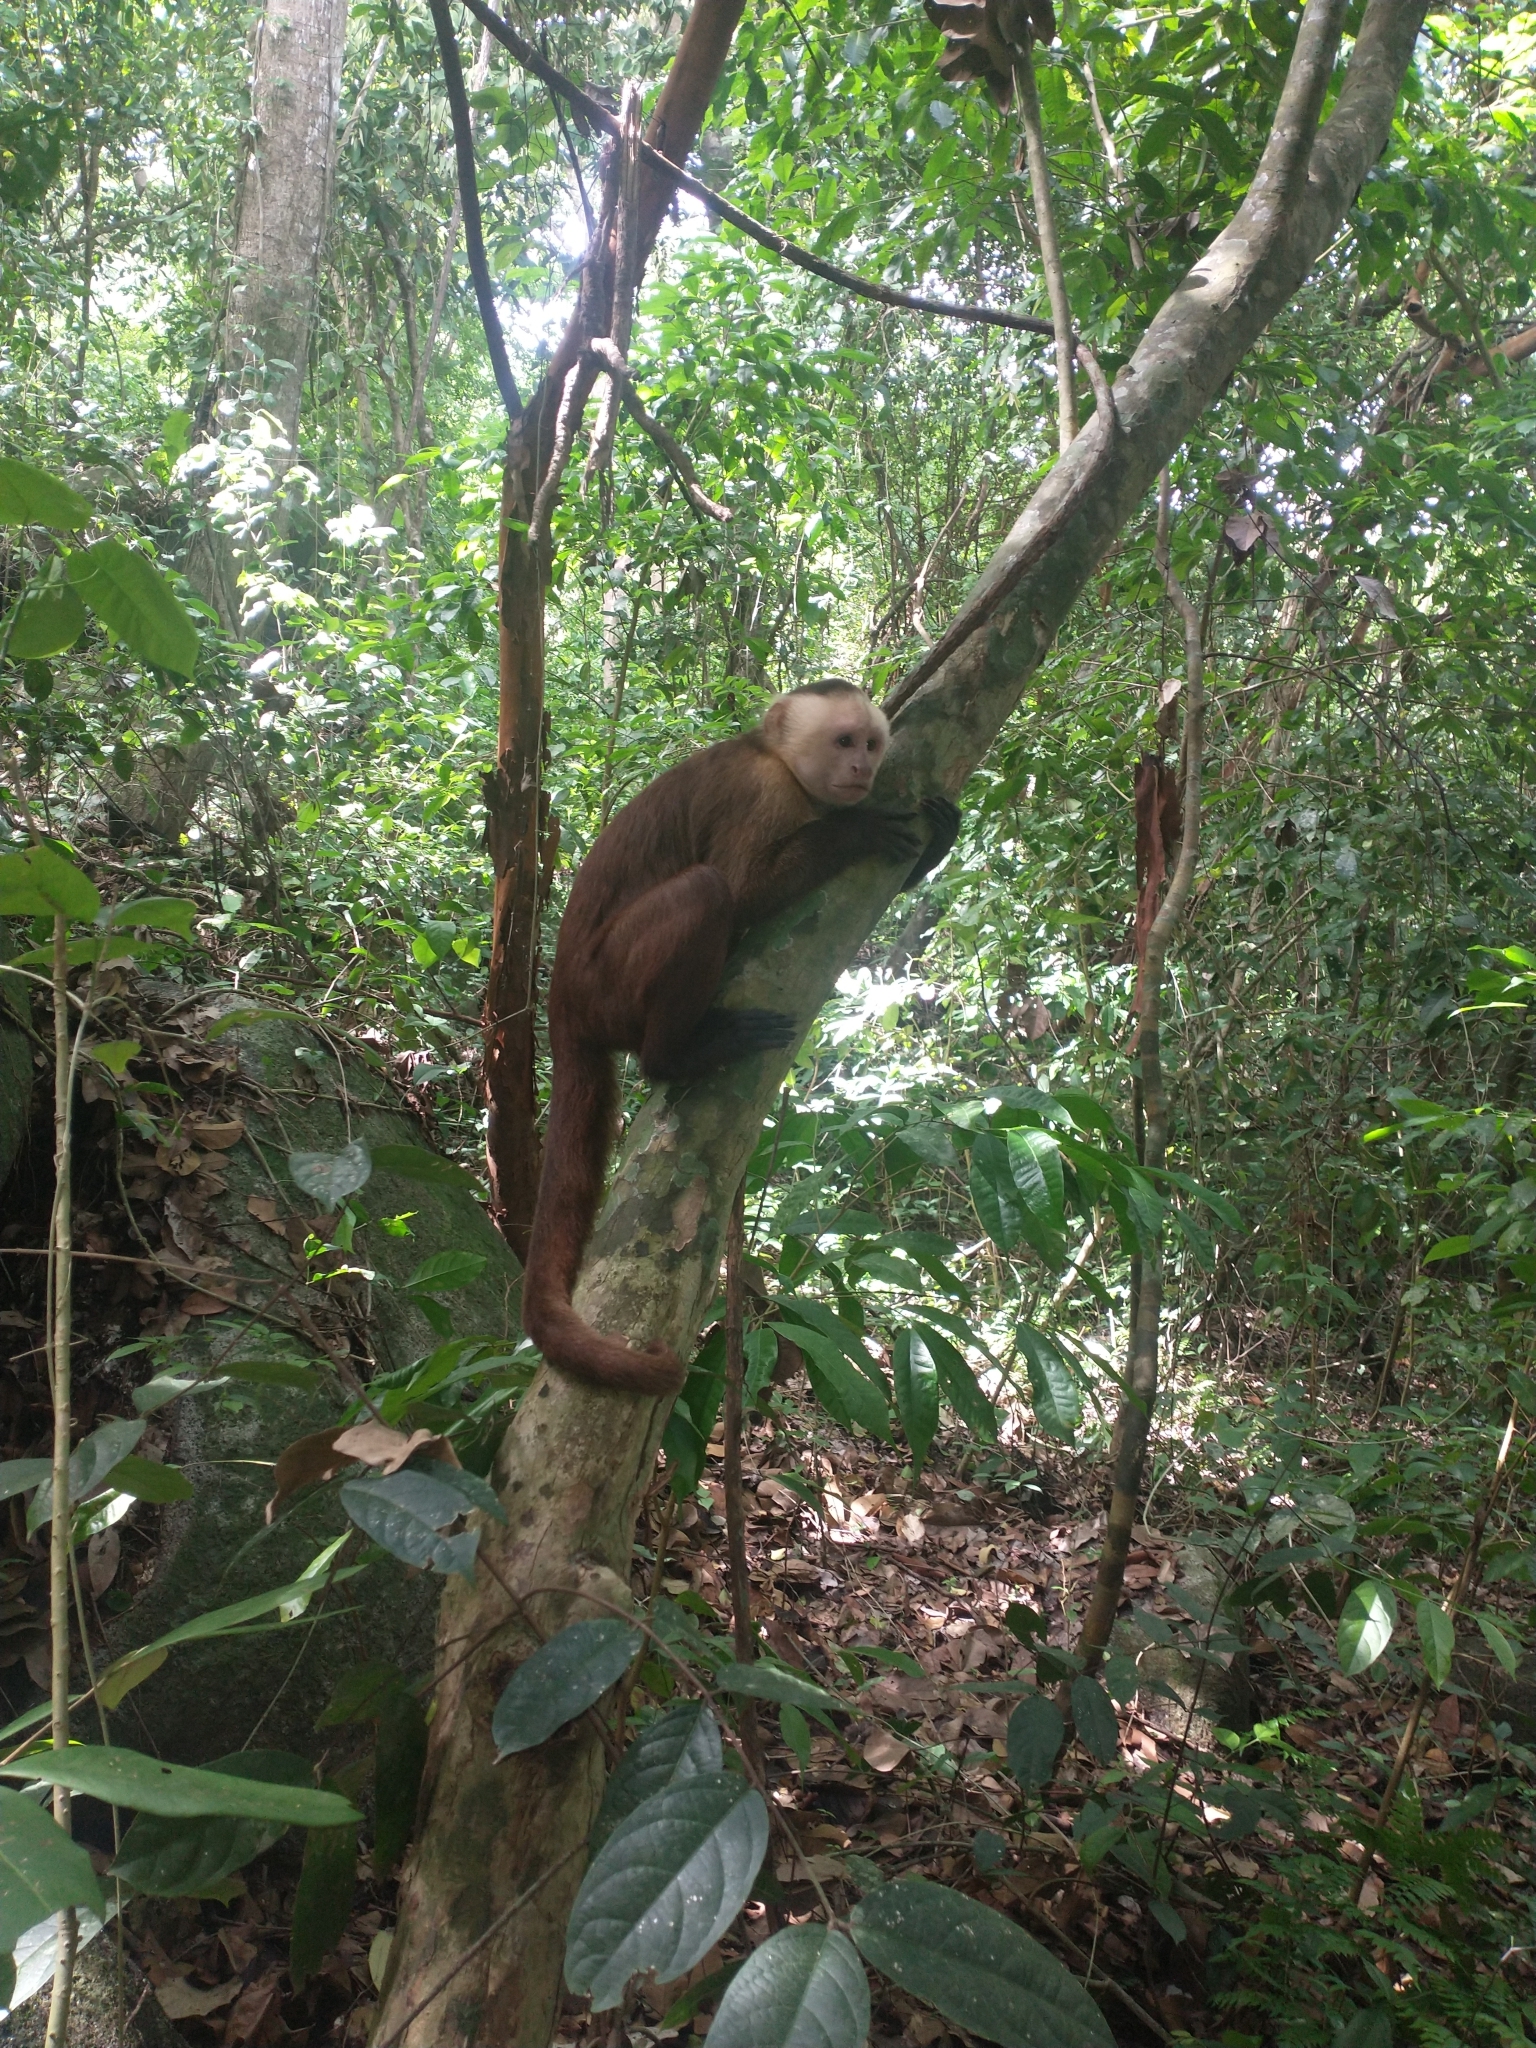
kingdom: Animalia
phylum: Chordata
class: Mammalia
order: Primates
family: Cebidae
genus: Cebus
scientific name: Cebus malitiosus
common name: Santa marta white-fronted capuchin
